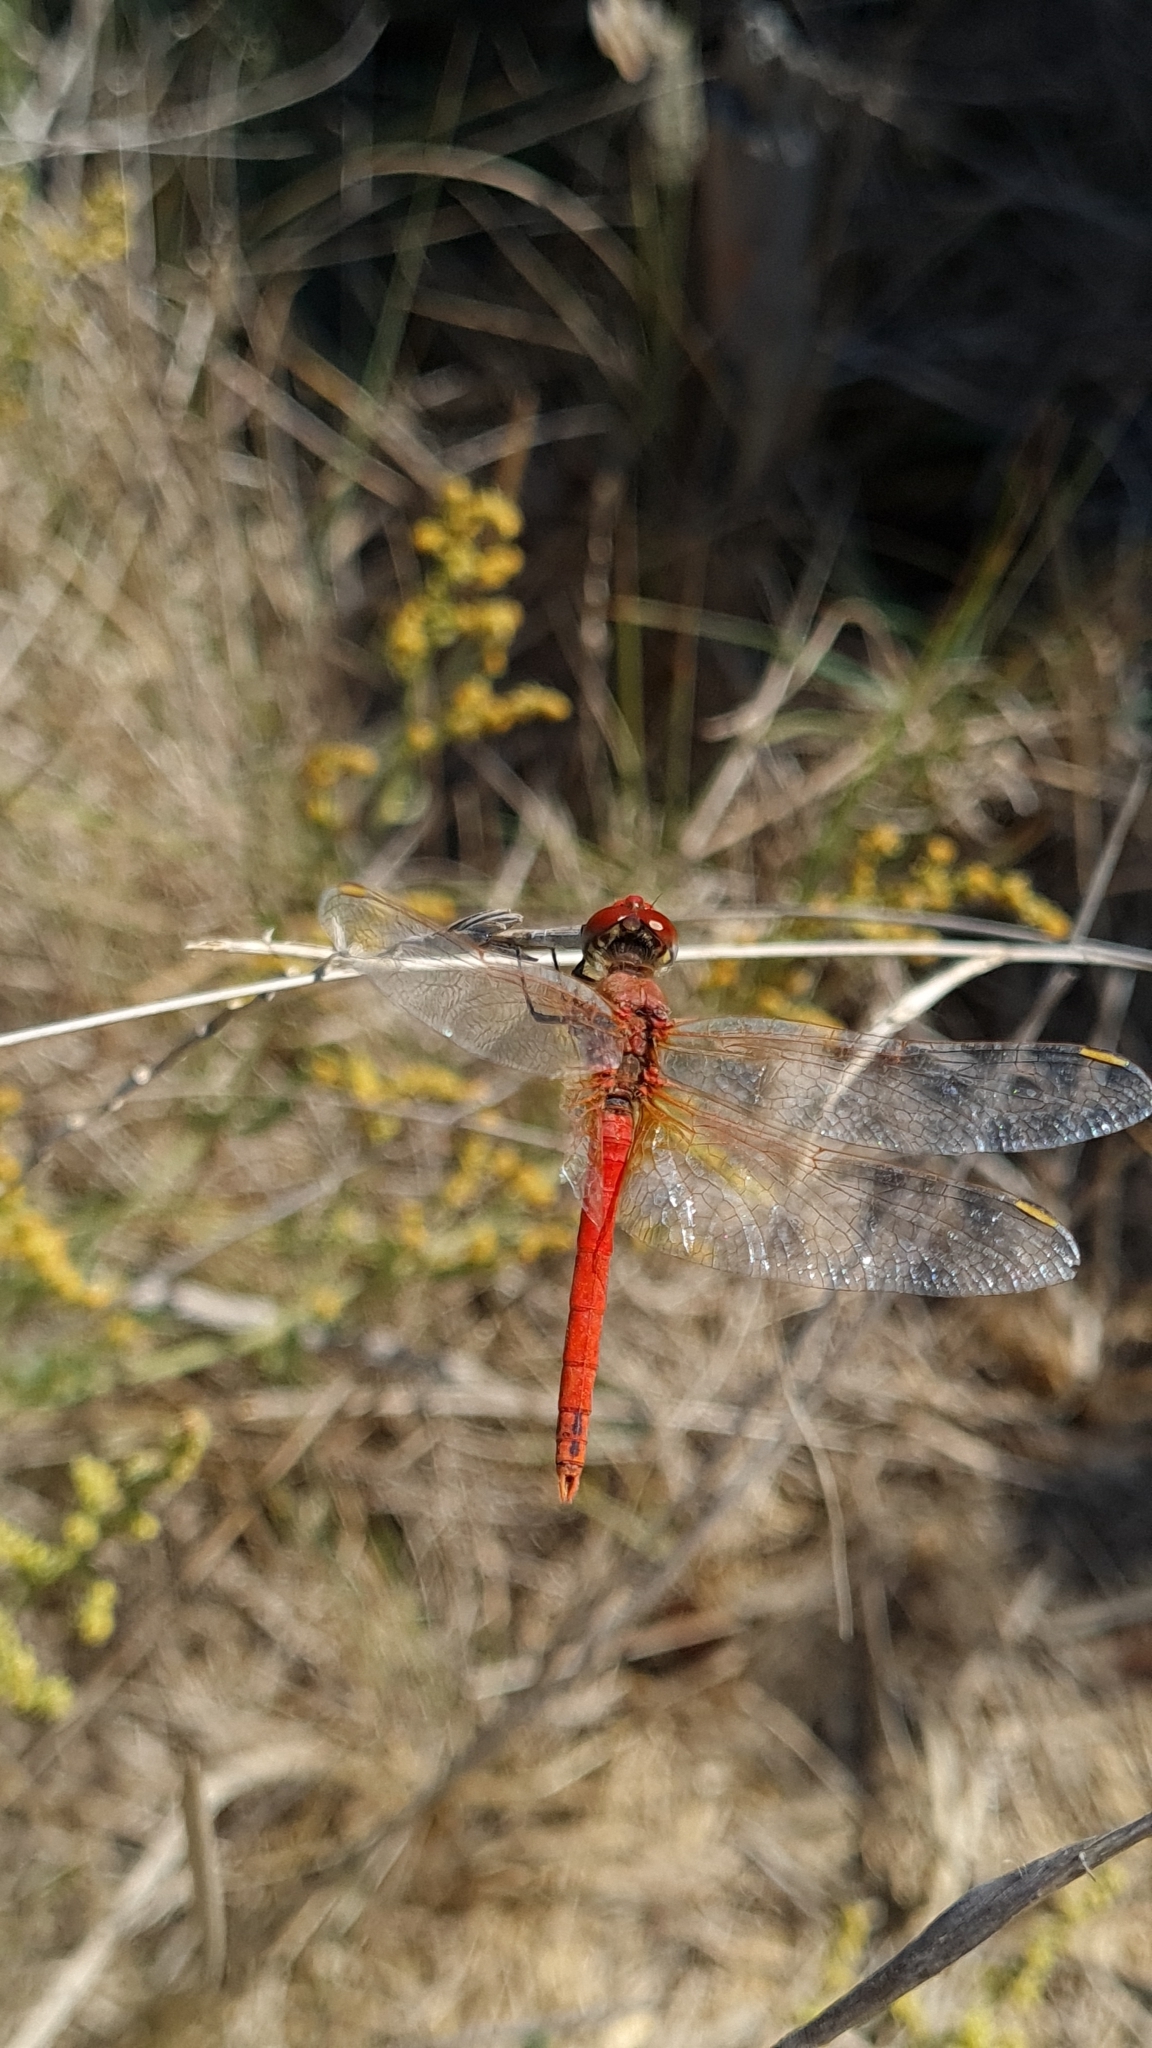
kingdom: Animalia
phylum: Arthropoda
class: Insecta
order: Odonata
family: Libellulidae
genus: Sympetrum
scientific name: Sympetrum fonscolombii
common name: Red-veined darter
